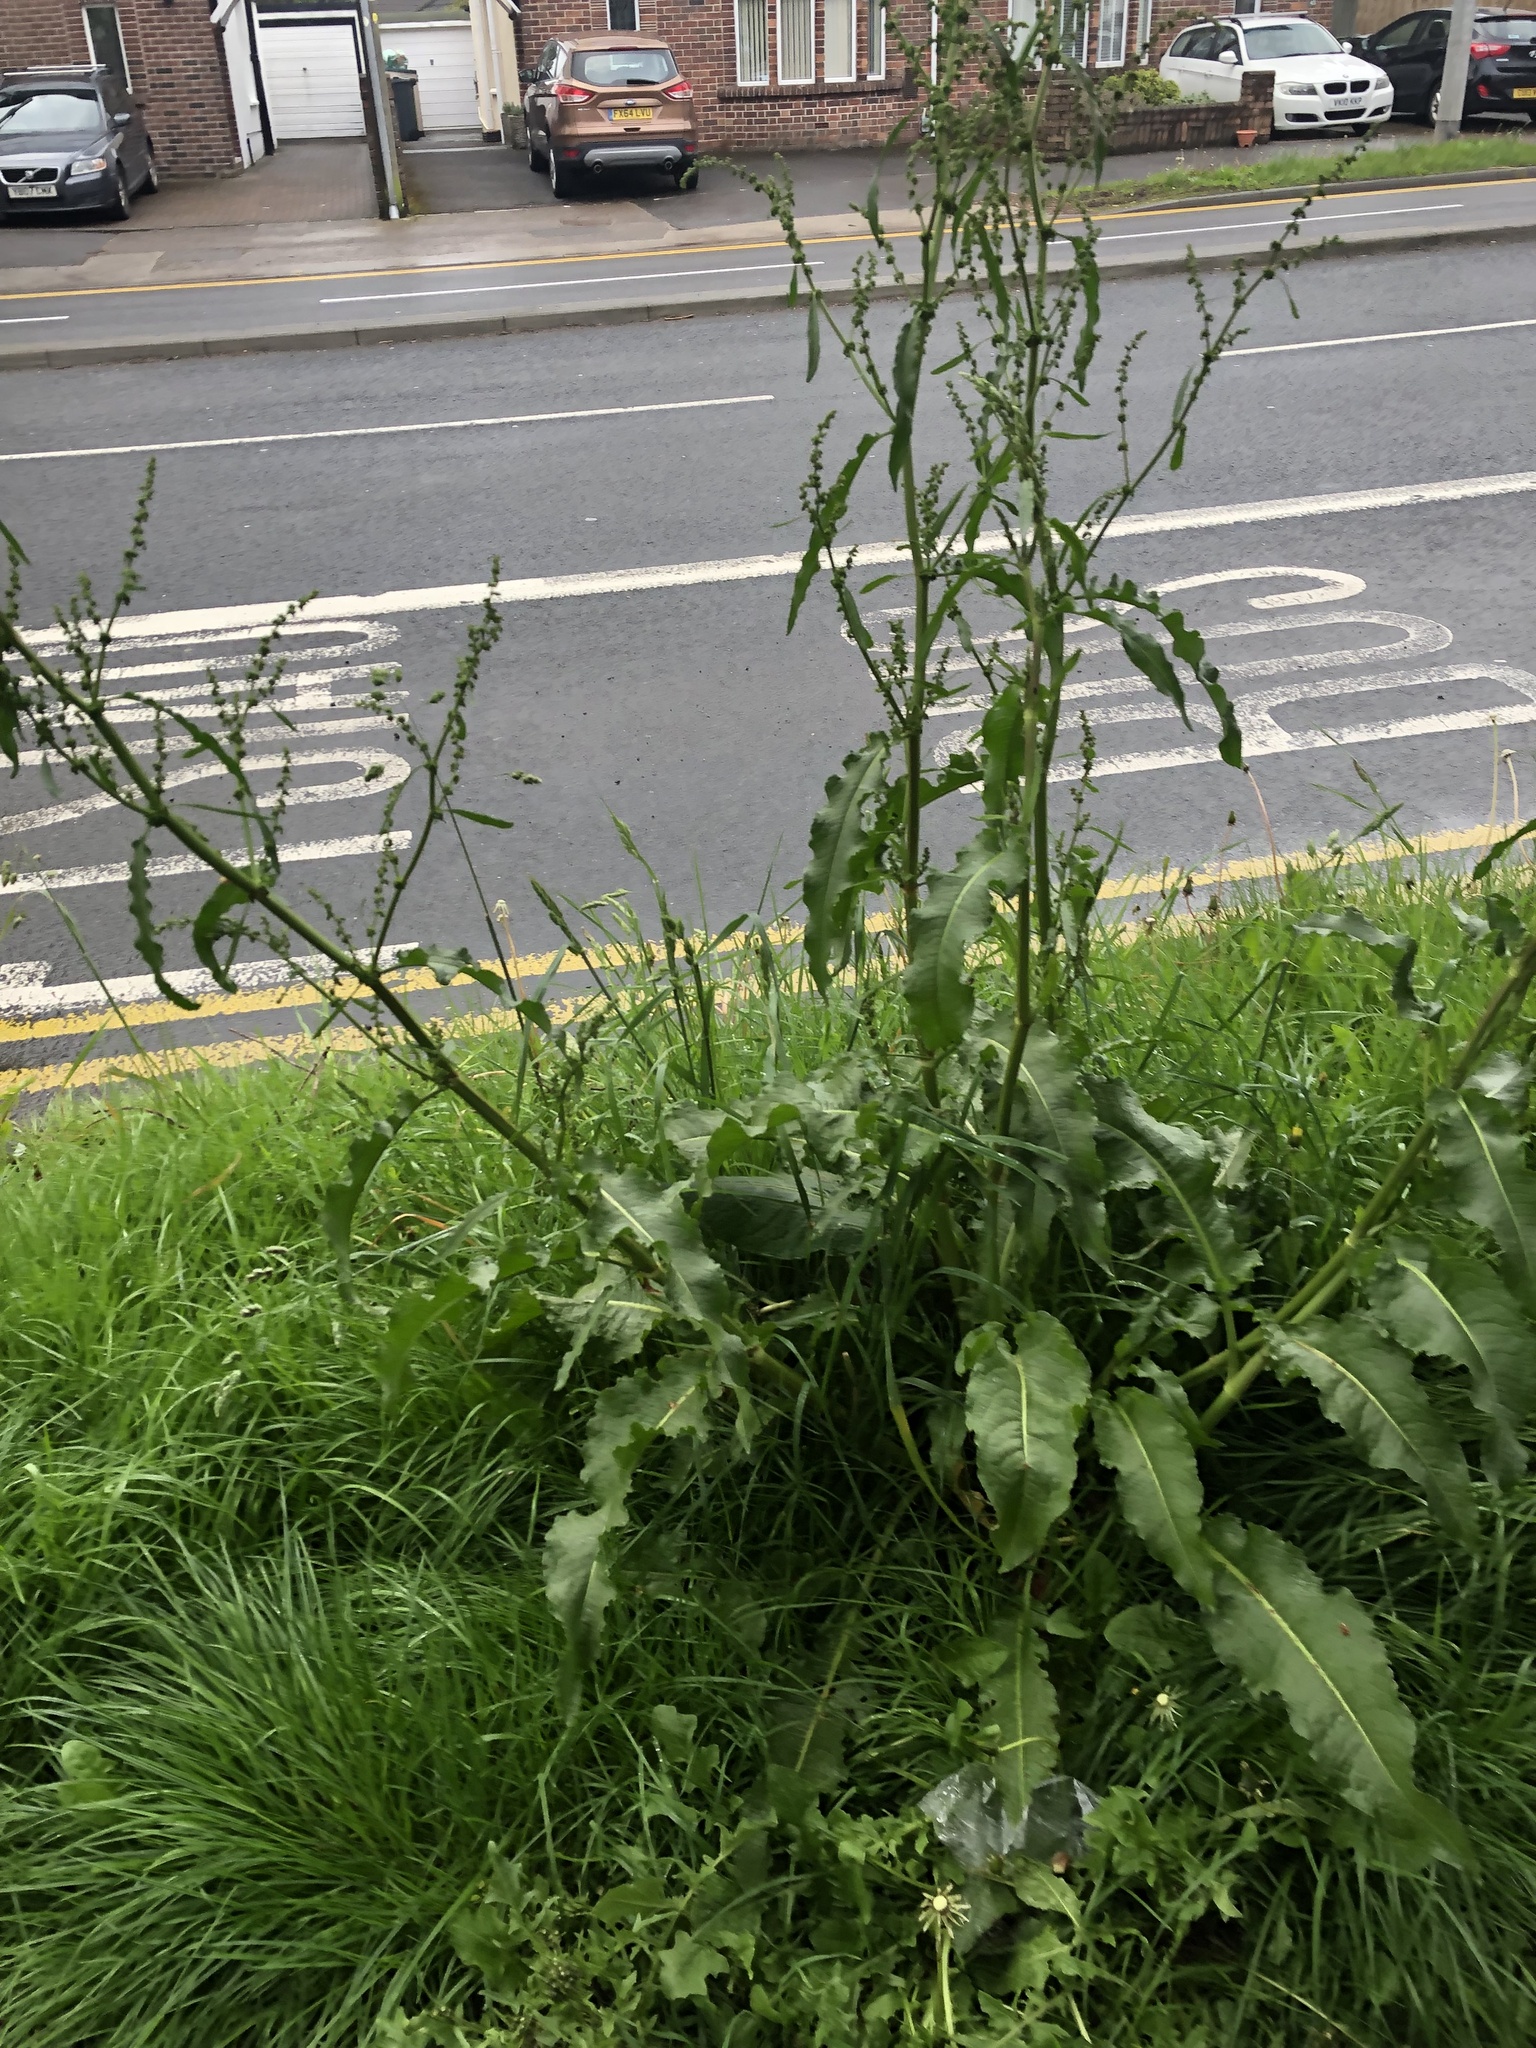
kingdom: Plantae
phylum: Tracheophyta
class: Magnoliopsida
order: Caryophyllales
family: Polygonaceae
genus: Rumex
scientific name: Rumex crispus
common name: Curled dock
